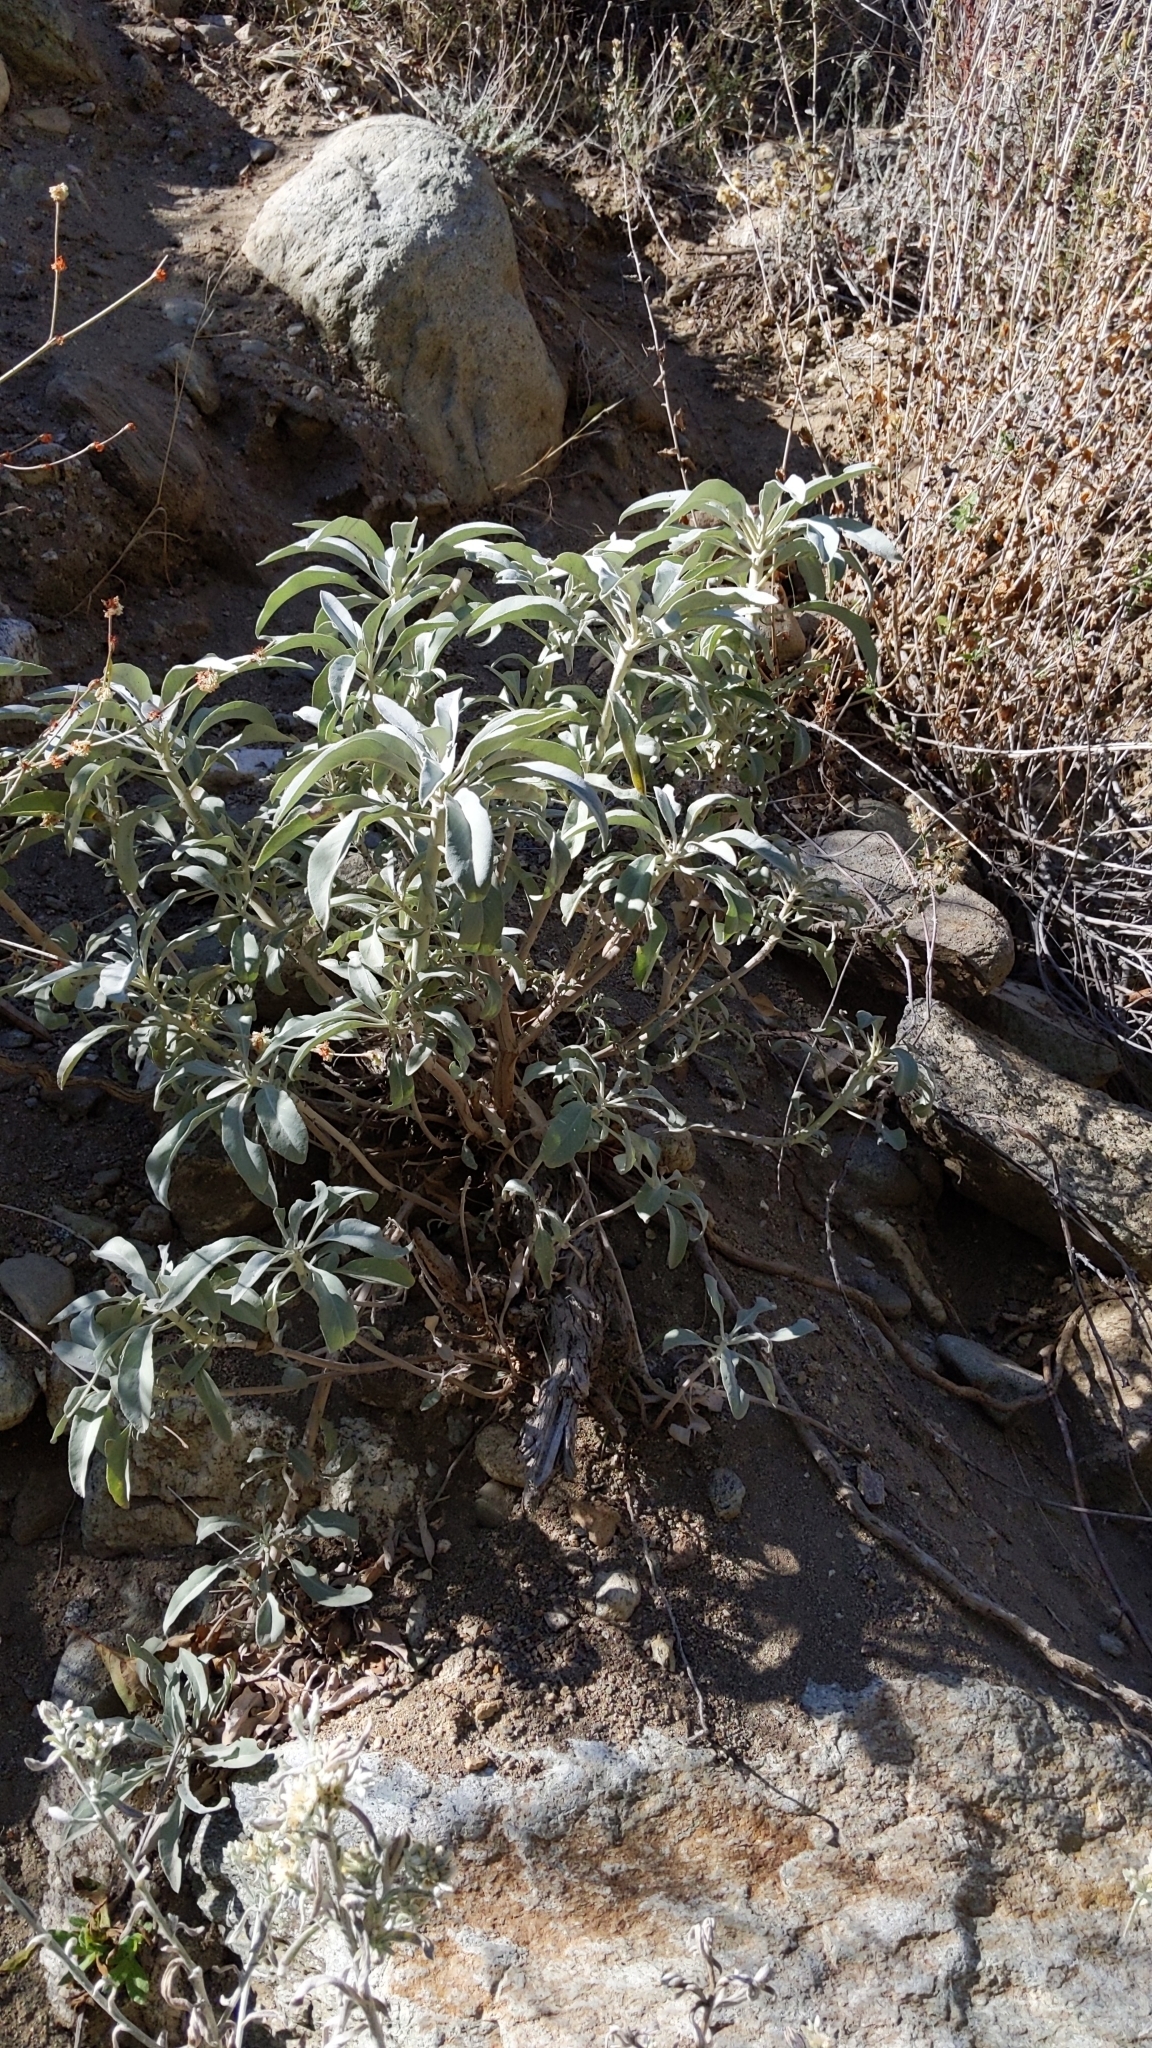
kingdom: Plantae
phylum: Tracheophyta
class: Magnoliopsida
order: Lamiales
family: Lamiaceae
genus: Salvia
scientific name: Salvia apiana
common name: White sage
